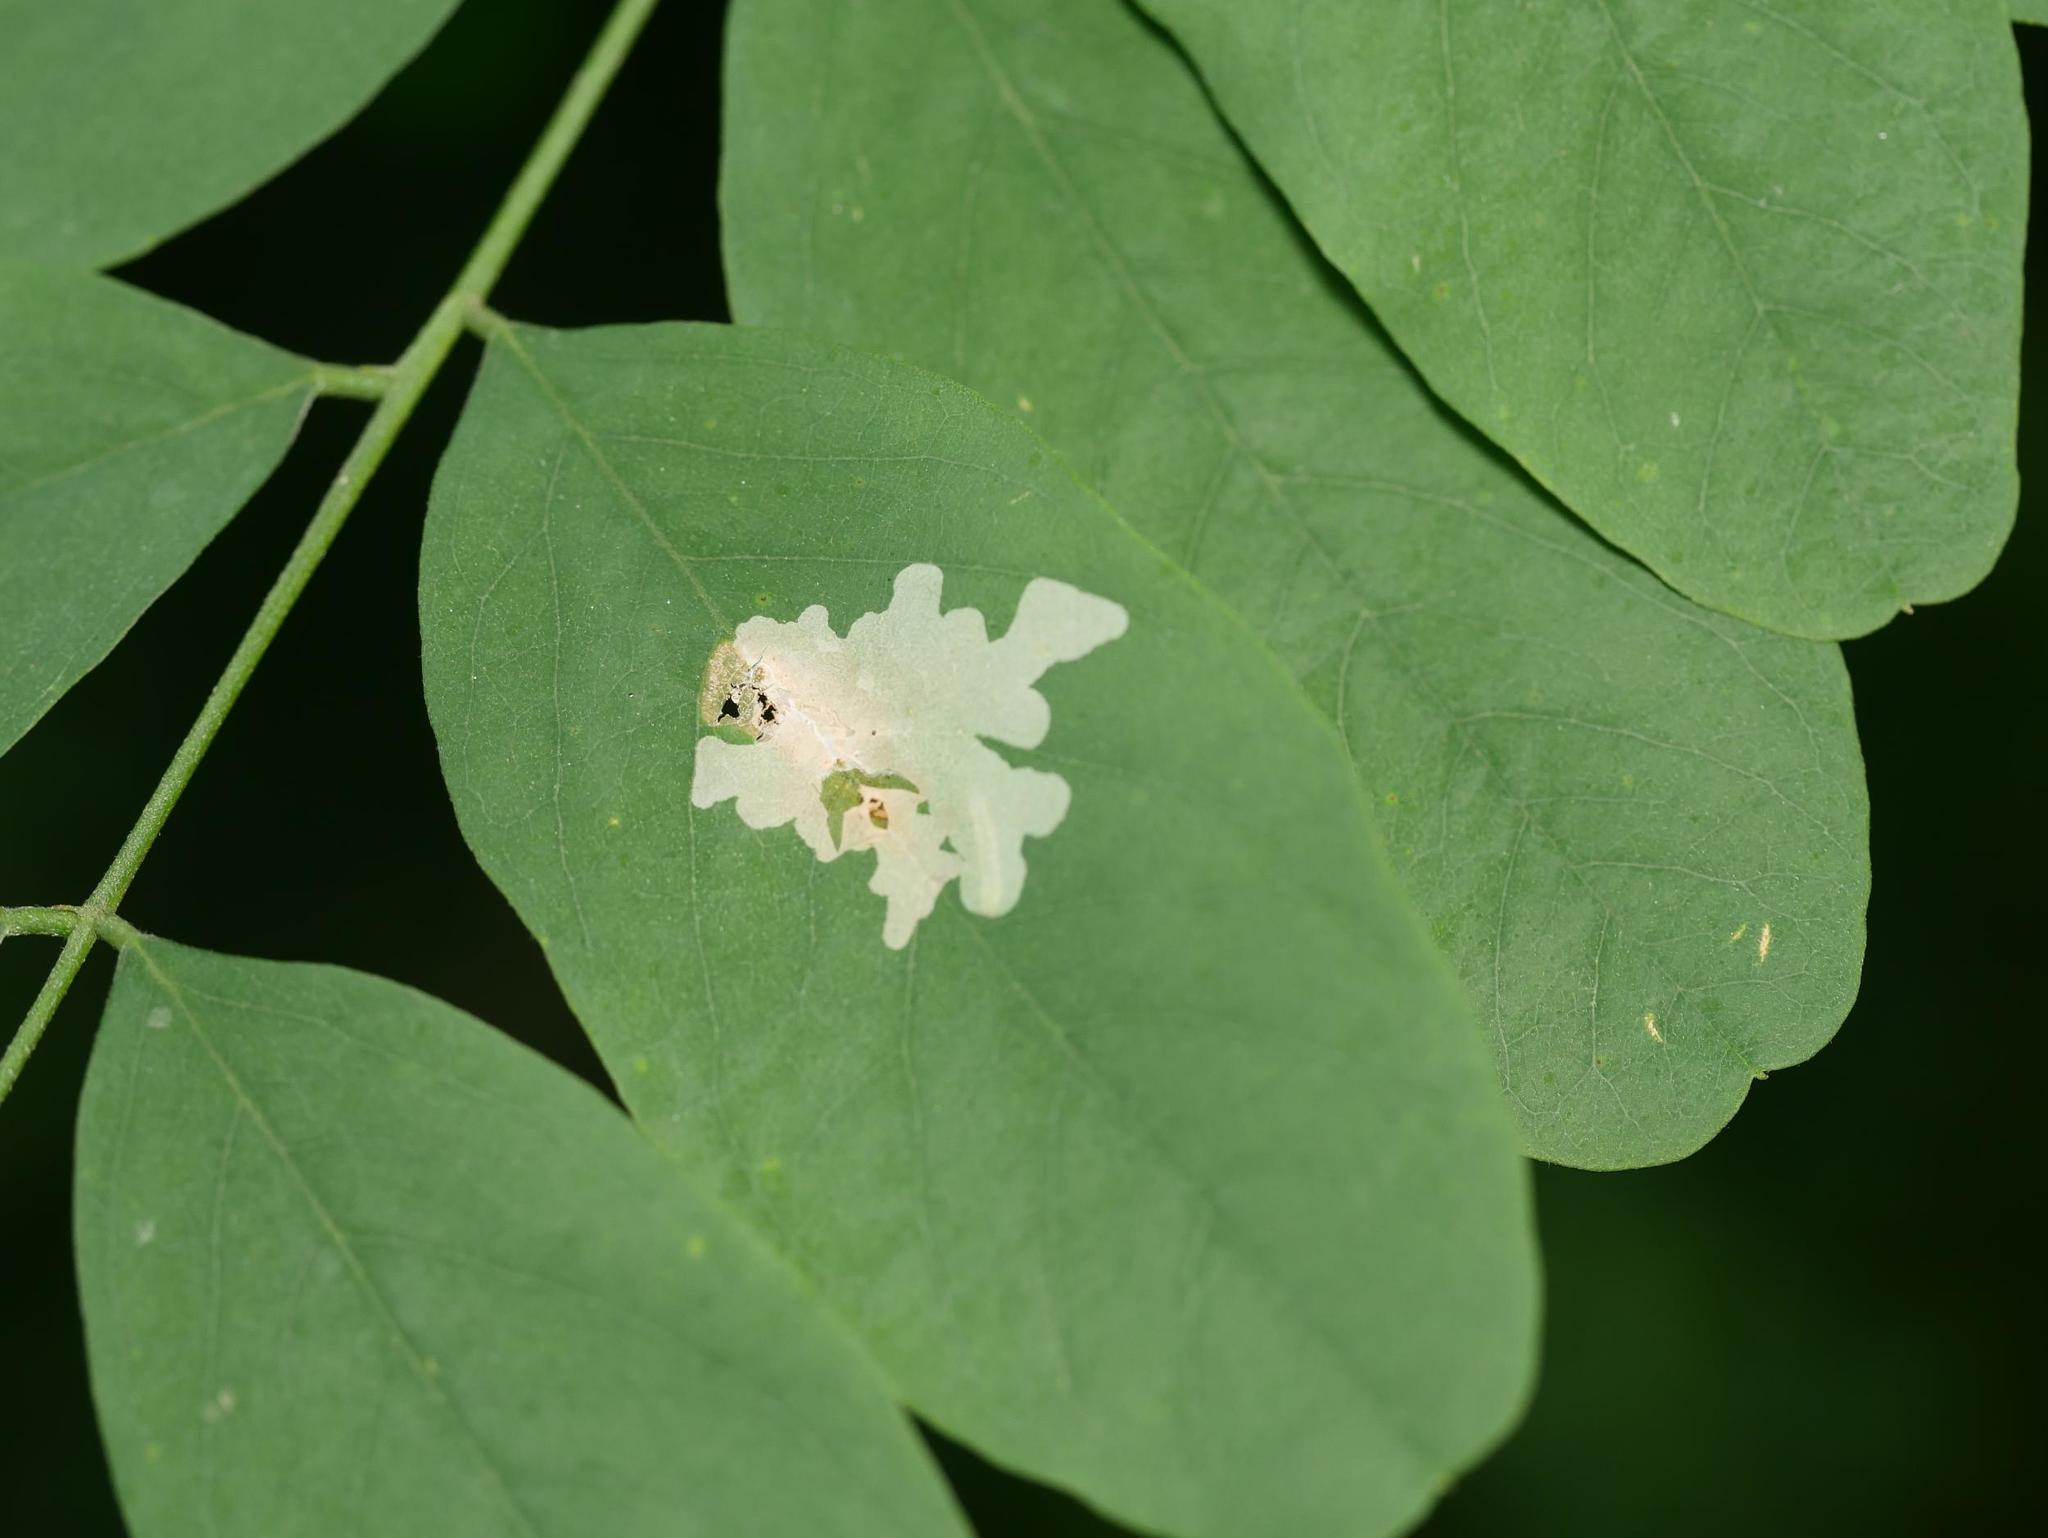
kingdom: Animalia
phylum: Arthropoda
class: Insecta
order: Lepidoptera
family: Gracillariidae
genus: Parectopa
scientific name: Parectopa robiniella
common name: Locust digitate leafminer
